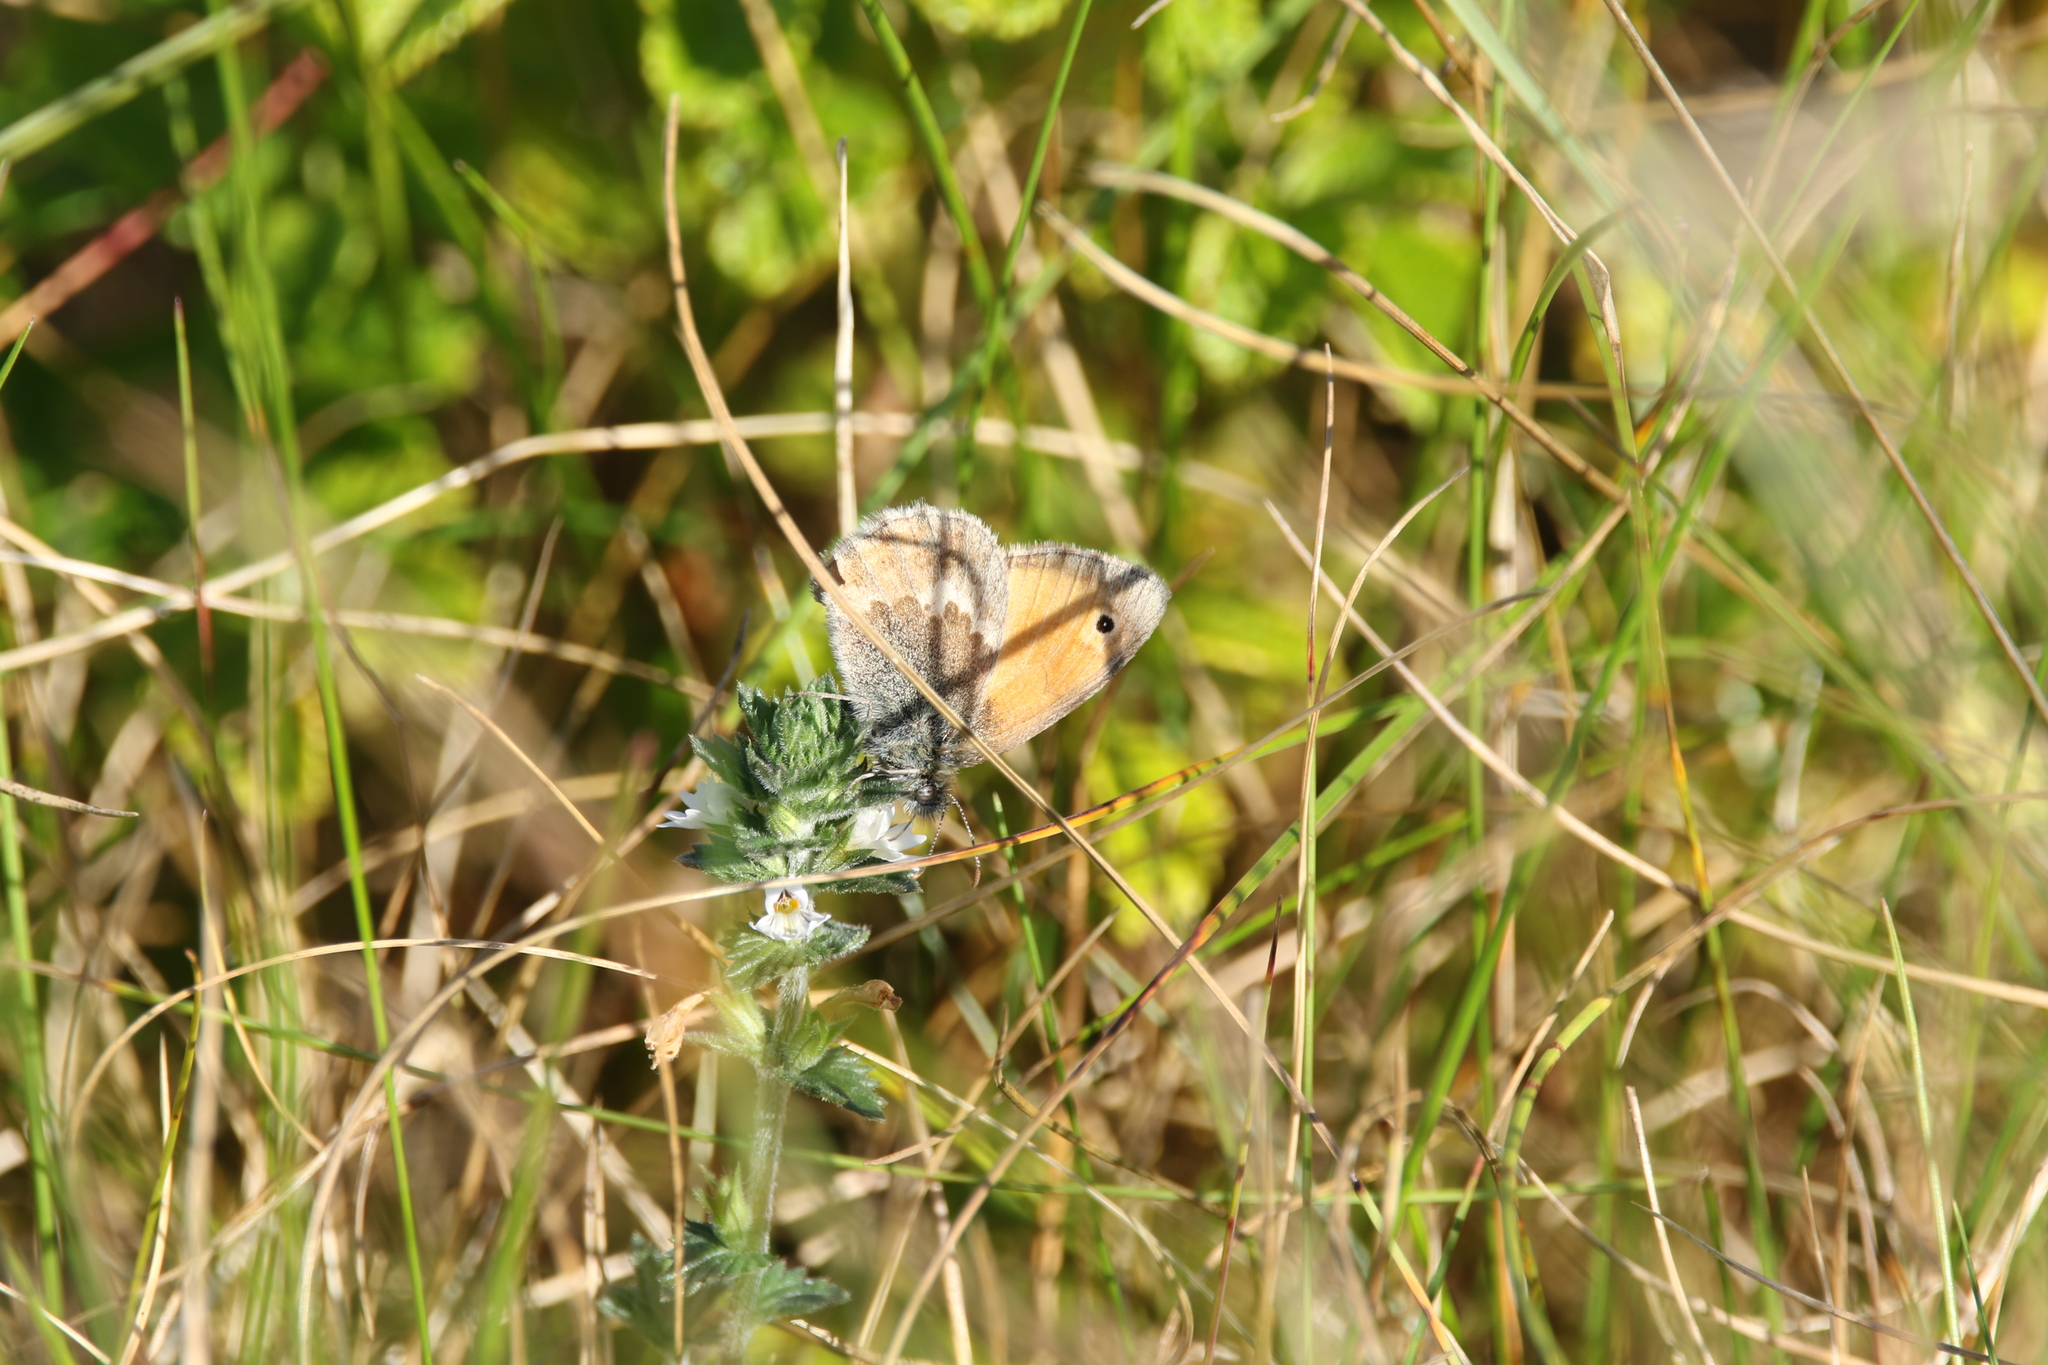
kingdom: Animalia
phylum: Arthropoda
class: Insecta
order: Lepidoptera
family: Nymphalidae
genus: Coenonympha
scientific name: Coenonympha pamphilus
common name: Small heath
